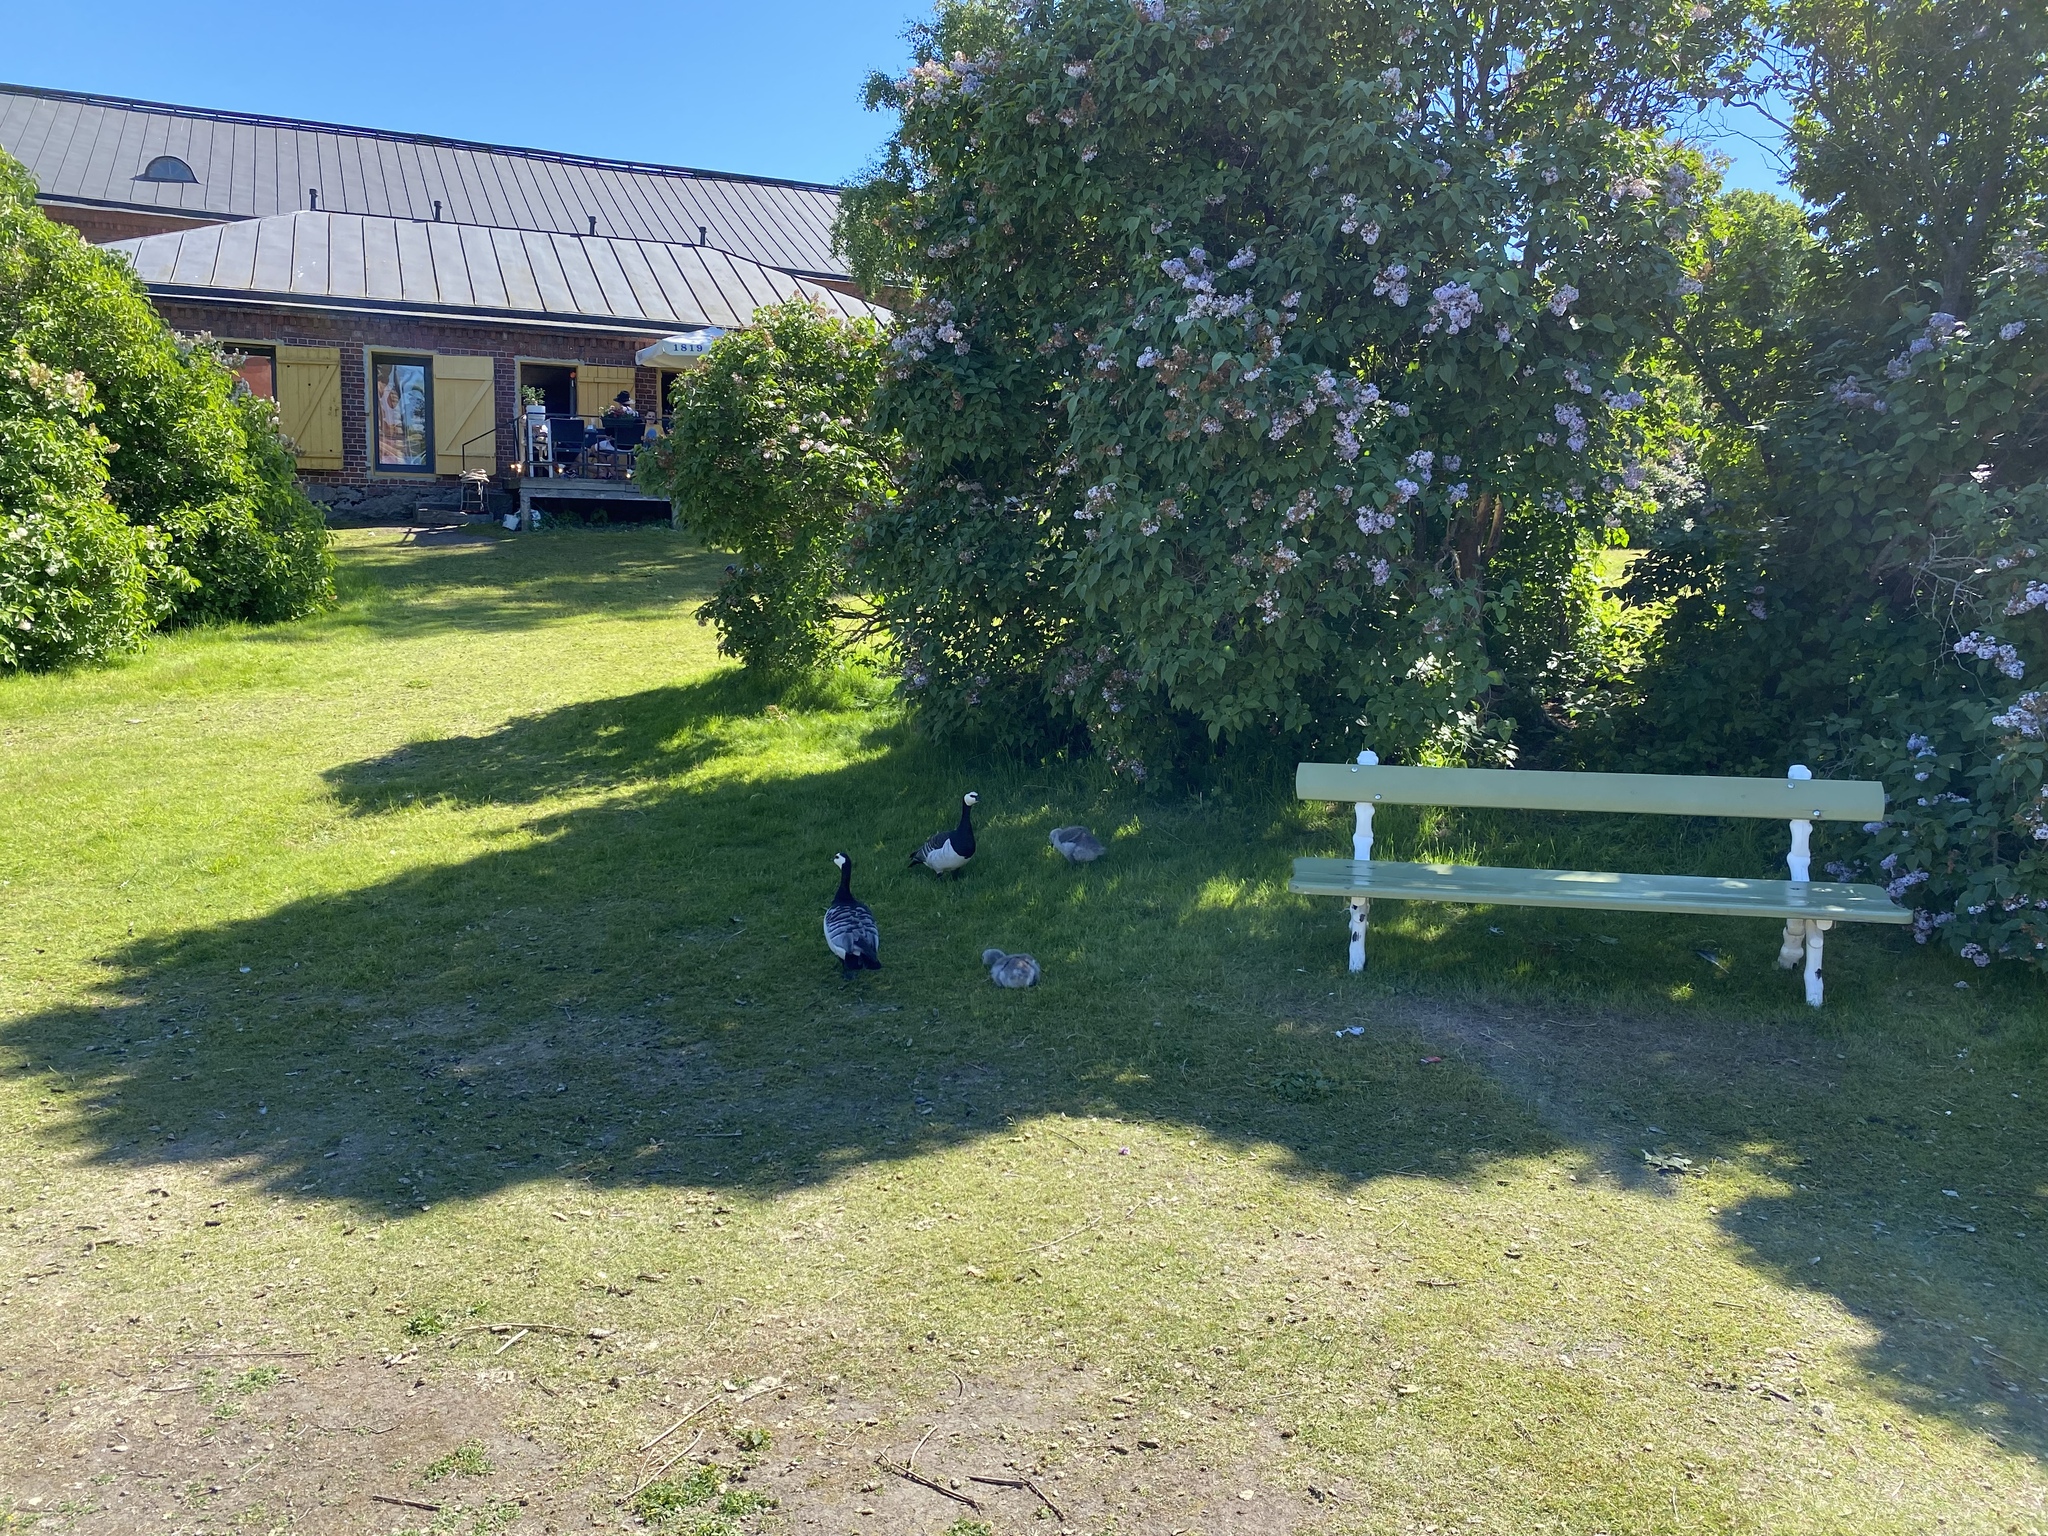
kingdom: Animalia
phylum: Chordata
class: Aves
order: Anseriformes
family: Anatidae
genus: Branta
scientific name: Branta leucopsis
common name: Barnacle goose
